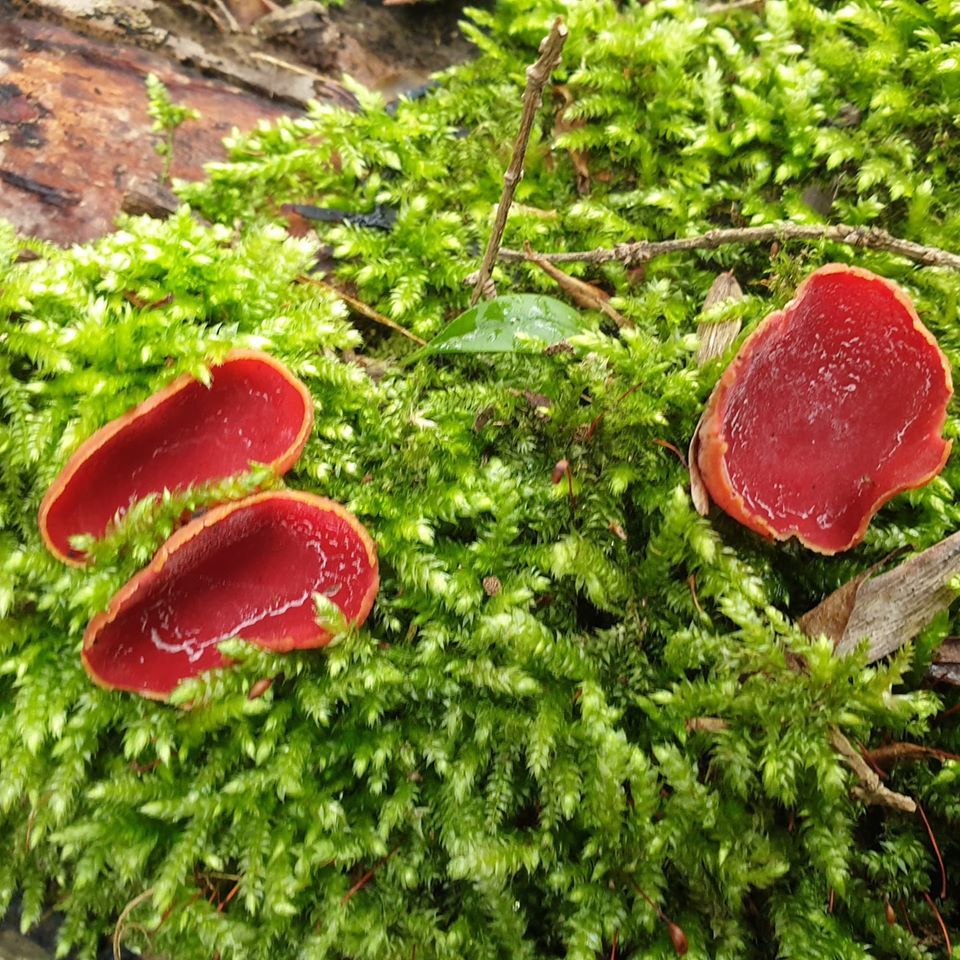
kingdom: Fungi
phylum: Ascomycota
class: Pezizomycetes
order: Pezizales
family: Sarcoscyphaceae
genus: Sarcoscypha
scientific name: Sarcoscypha
